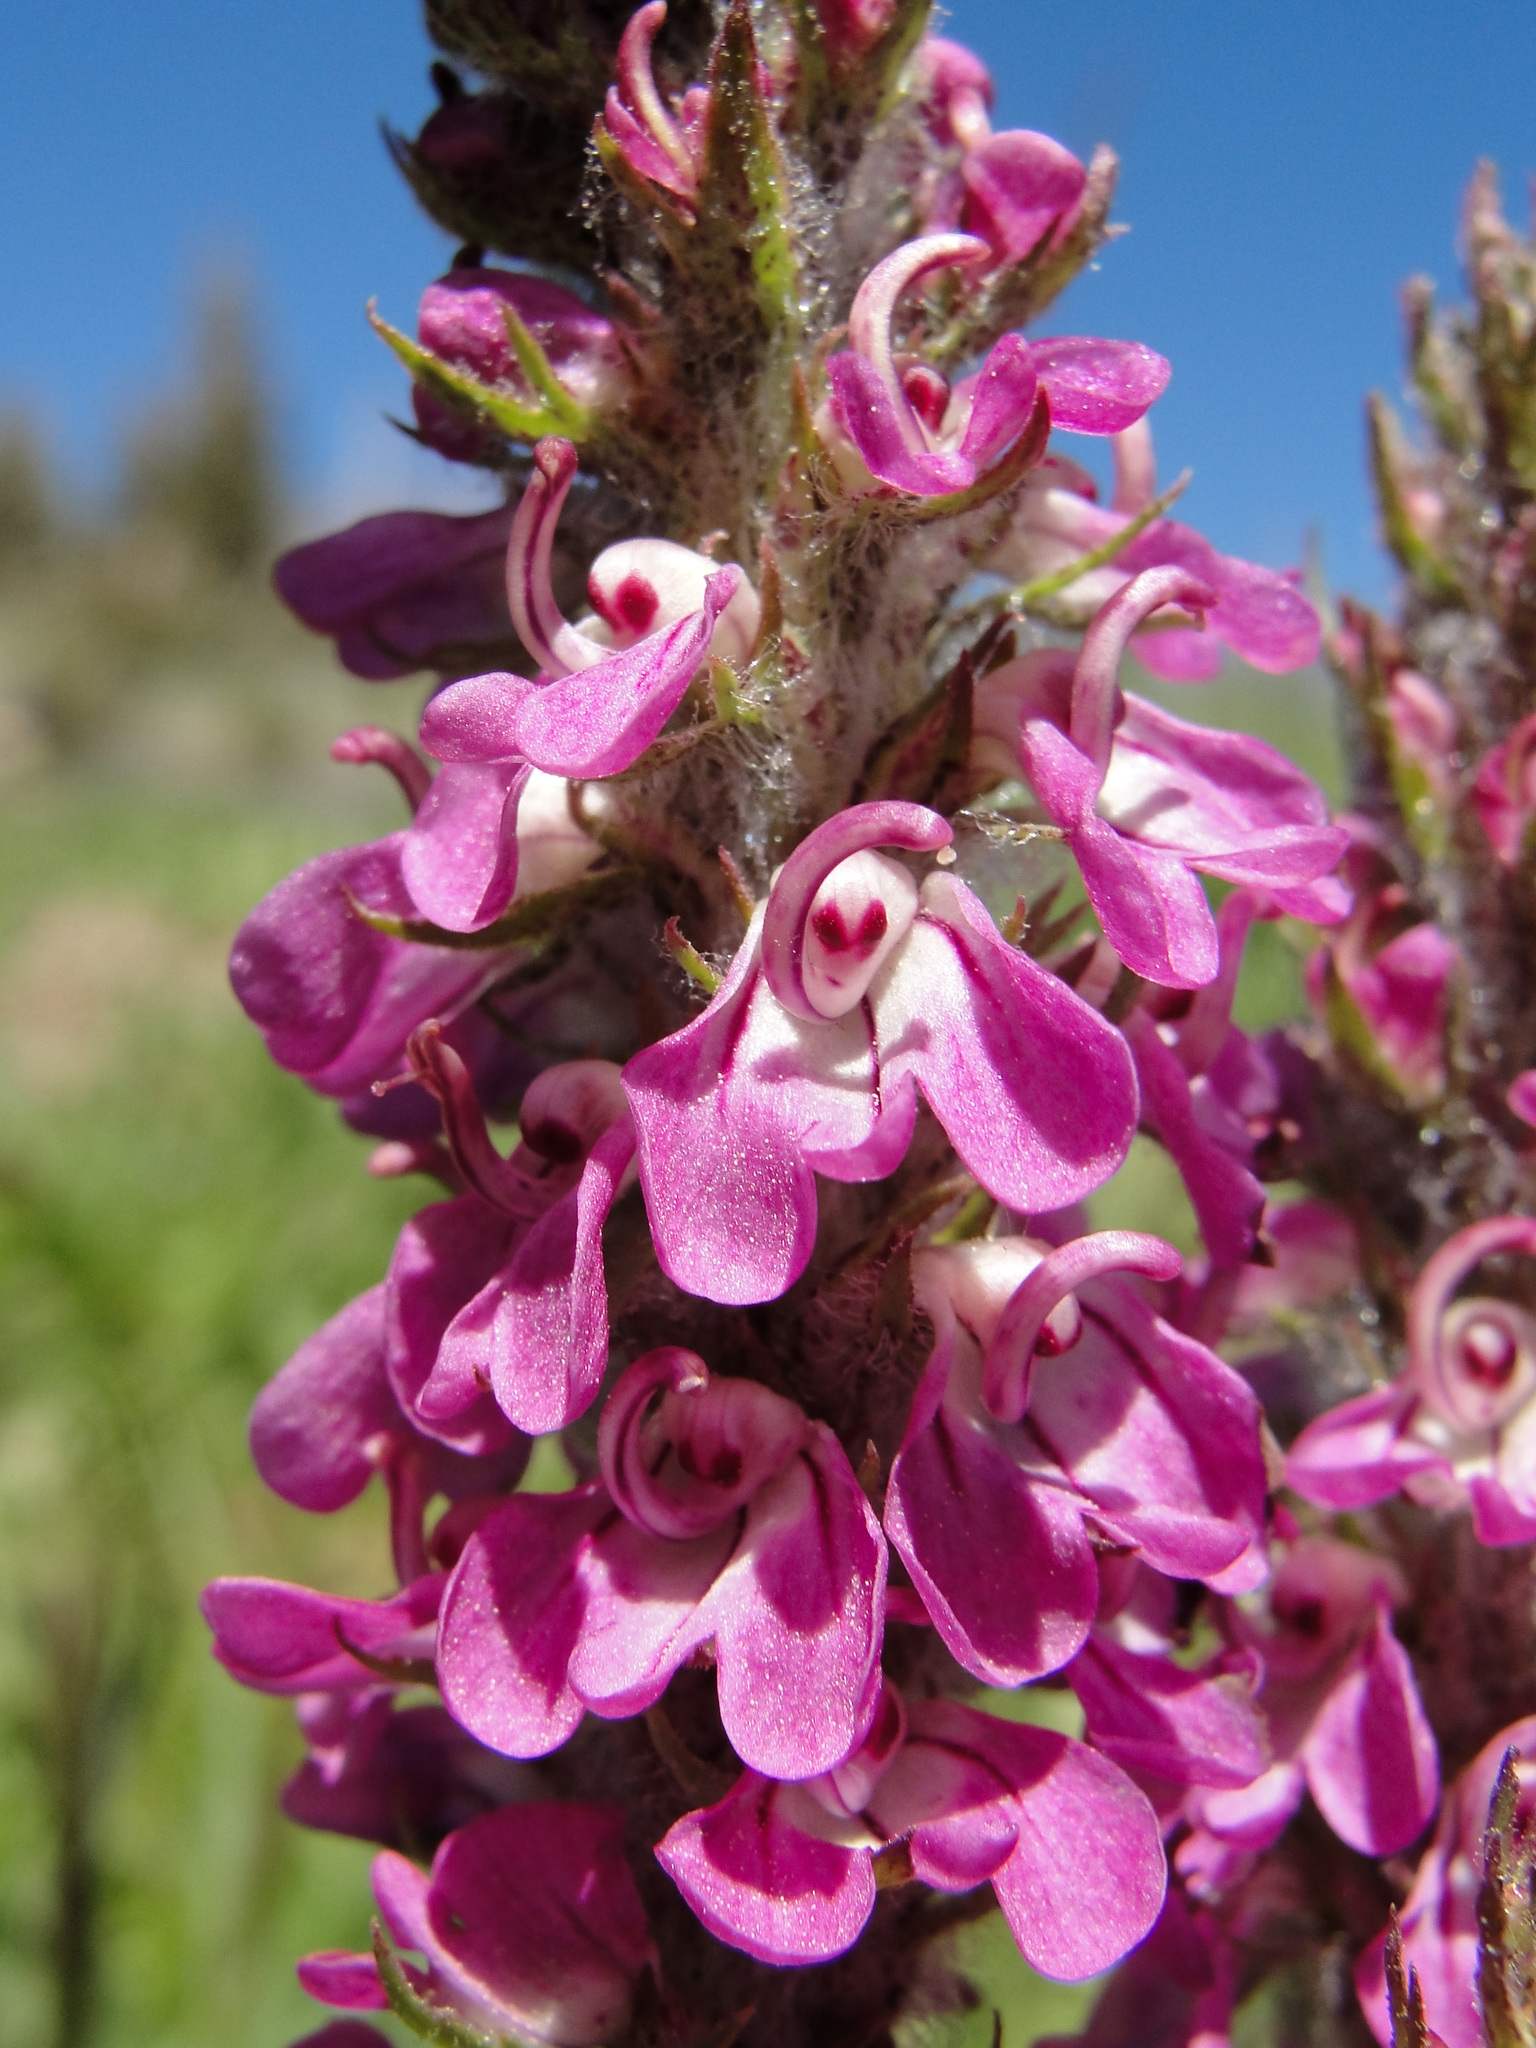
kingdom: Plantae
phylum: Tracheophyta
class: Magnoliopsida
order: Lamiales
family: Orobanchaceae
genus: Pedicularis
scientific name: Pedicularis attollens
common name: Slender pedicularis
